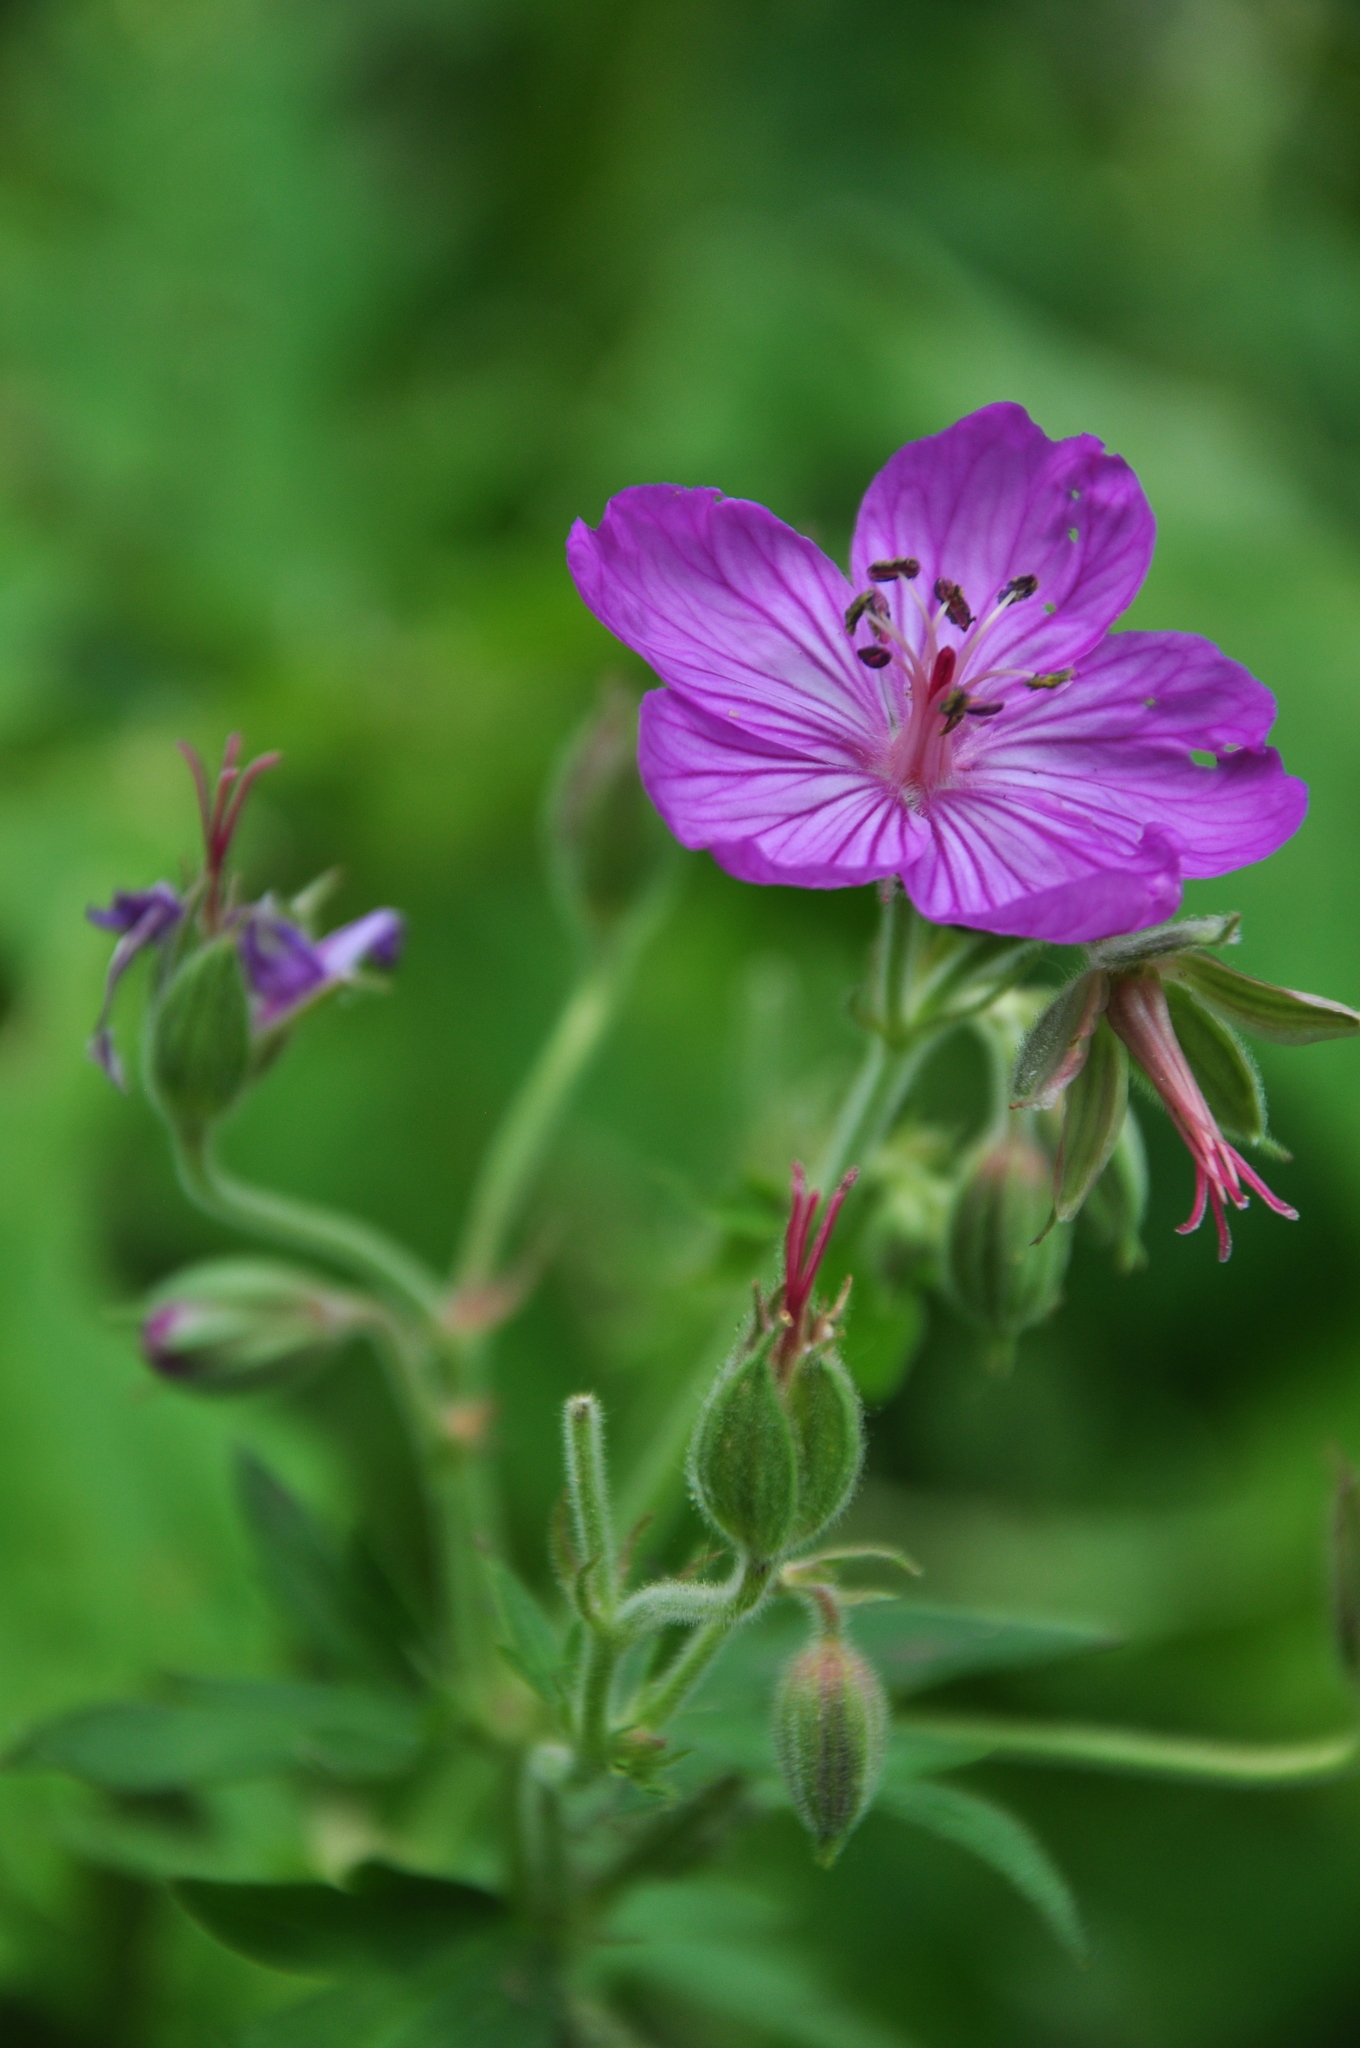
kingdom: Plantae
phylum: Tracheophyta
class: Magnoliopsida
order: Geraniales
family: Geraniaceae
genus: Geranium
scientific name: Geranium viscosissimum
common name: Purple geranium
